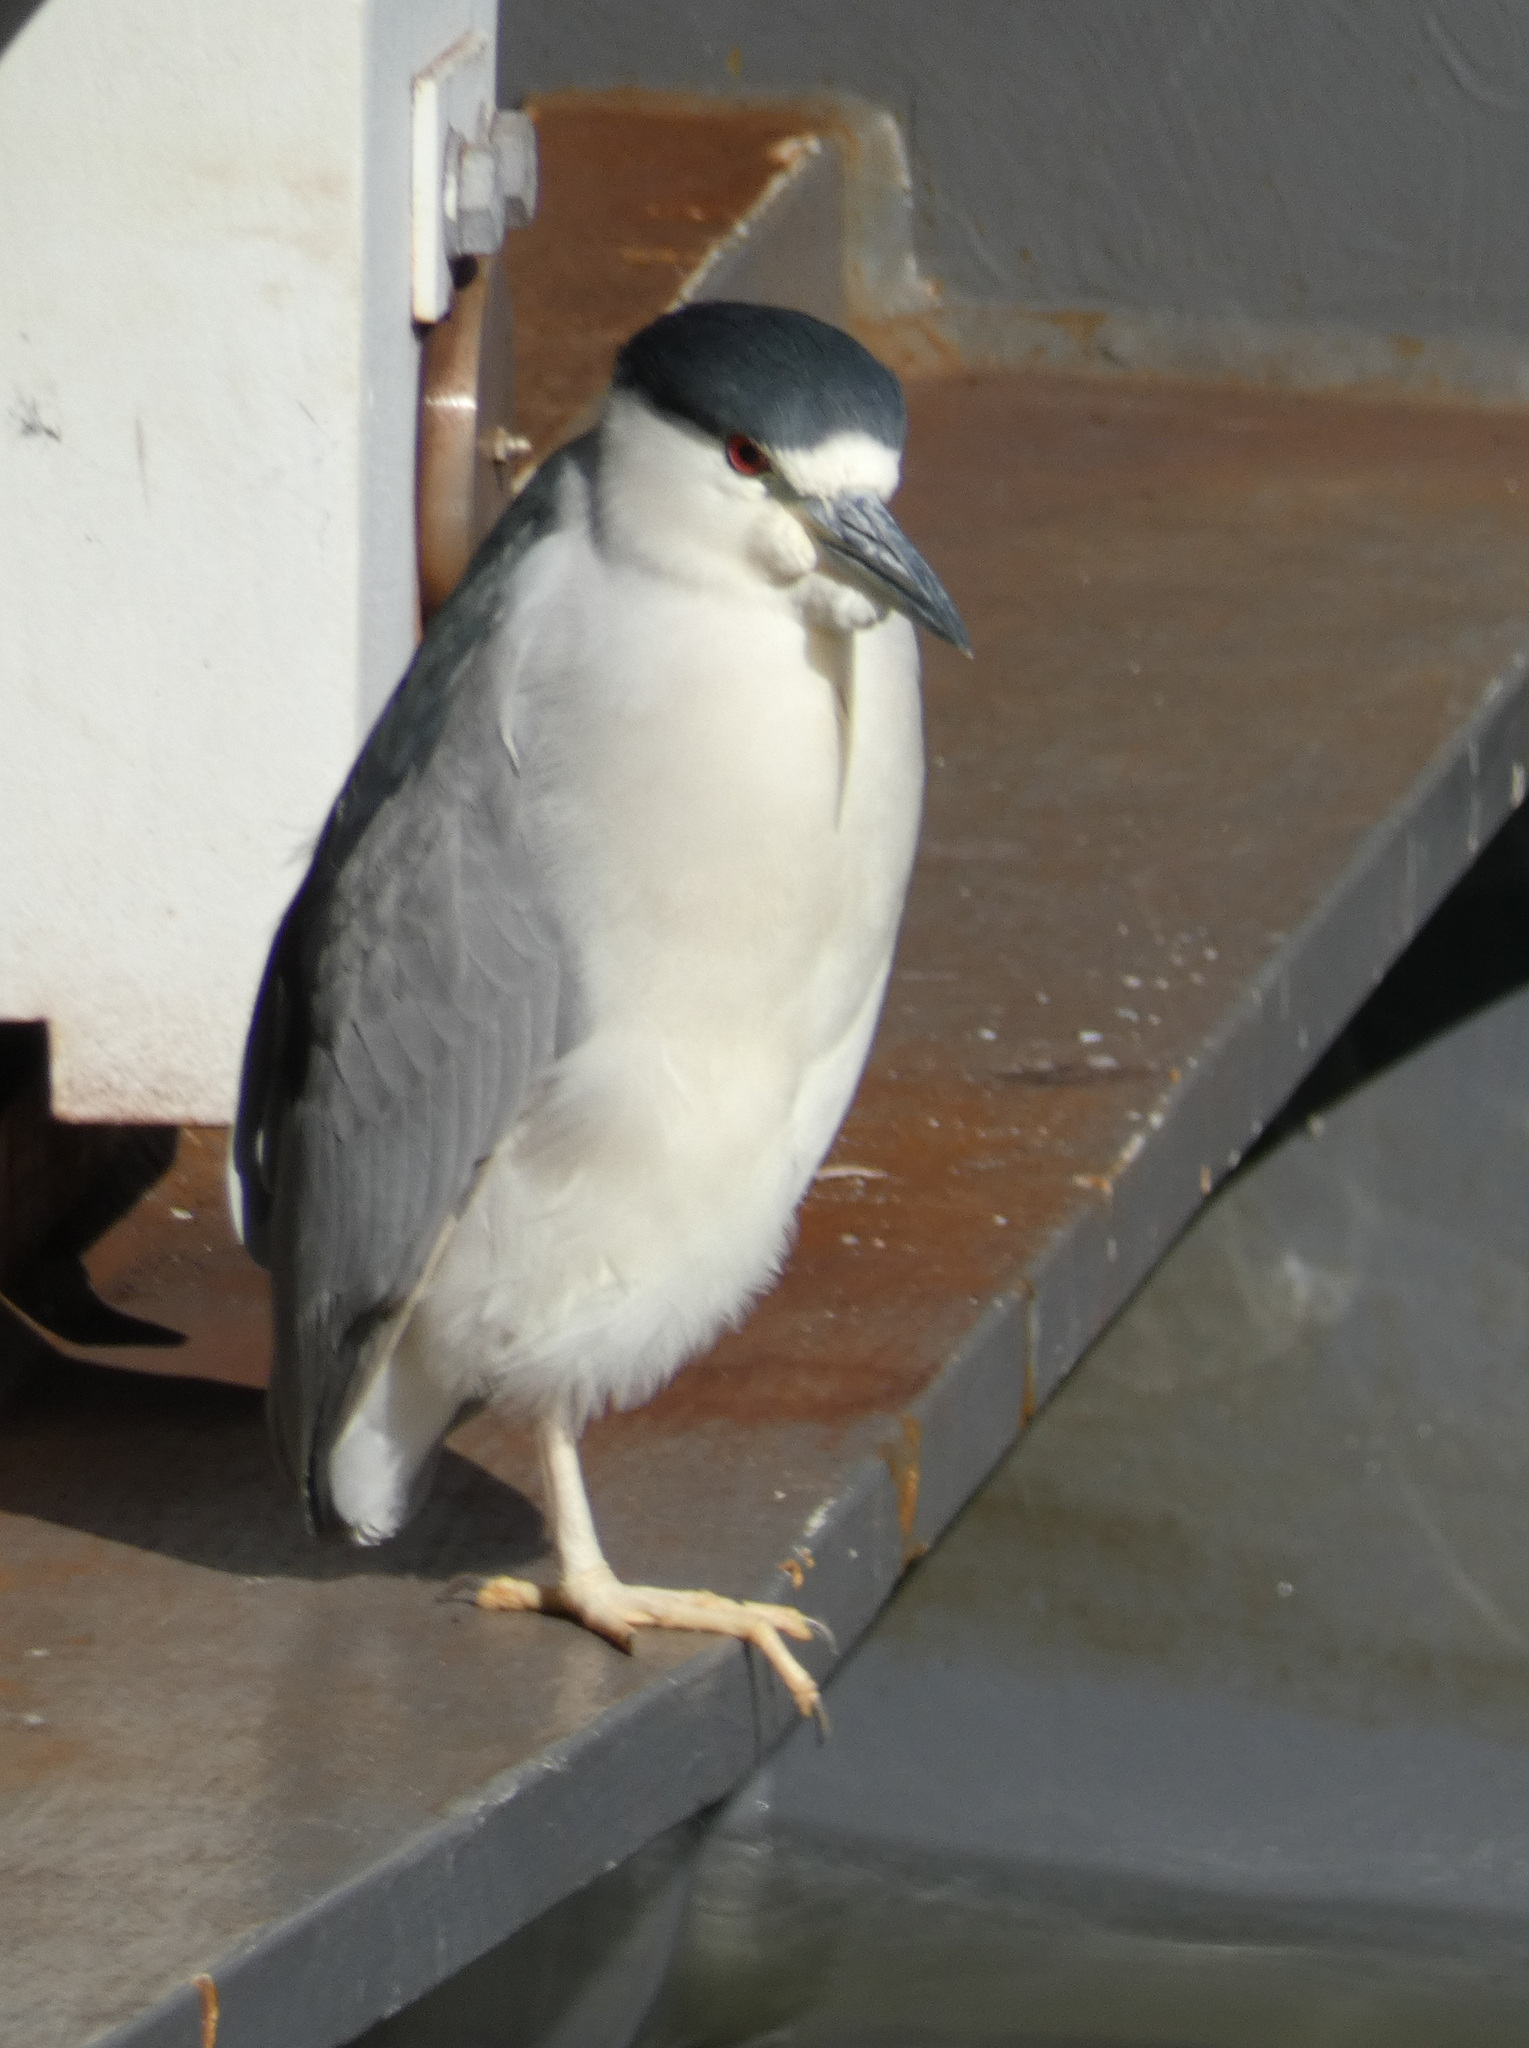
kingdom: Animalia
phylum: Chordata
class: Aves
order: Pelecaniformes
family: Ardeidae
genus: Nycticorax
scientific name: Nycticorax nycticorax
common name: Black-crowned night heron
